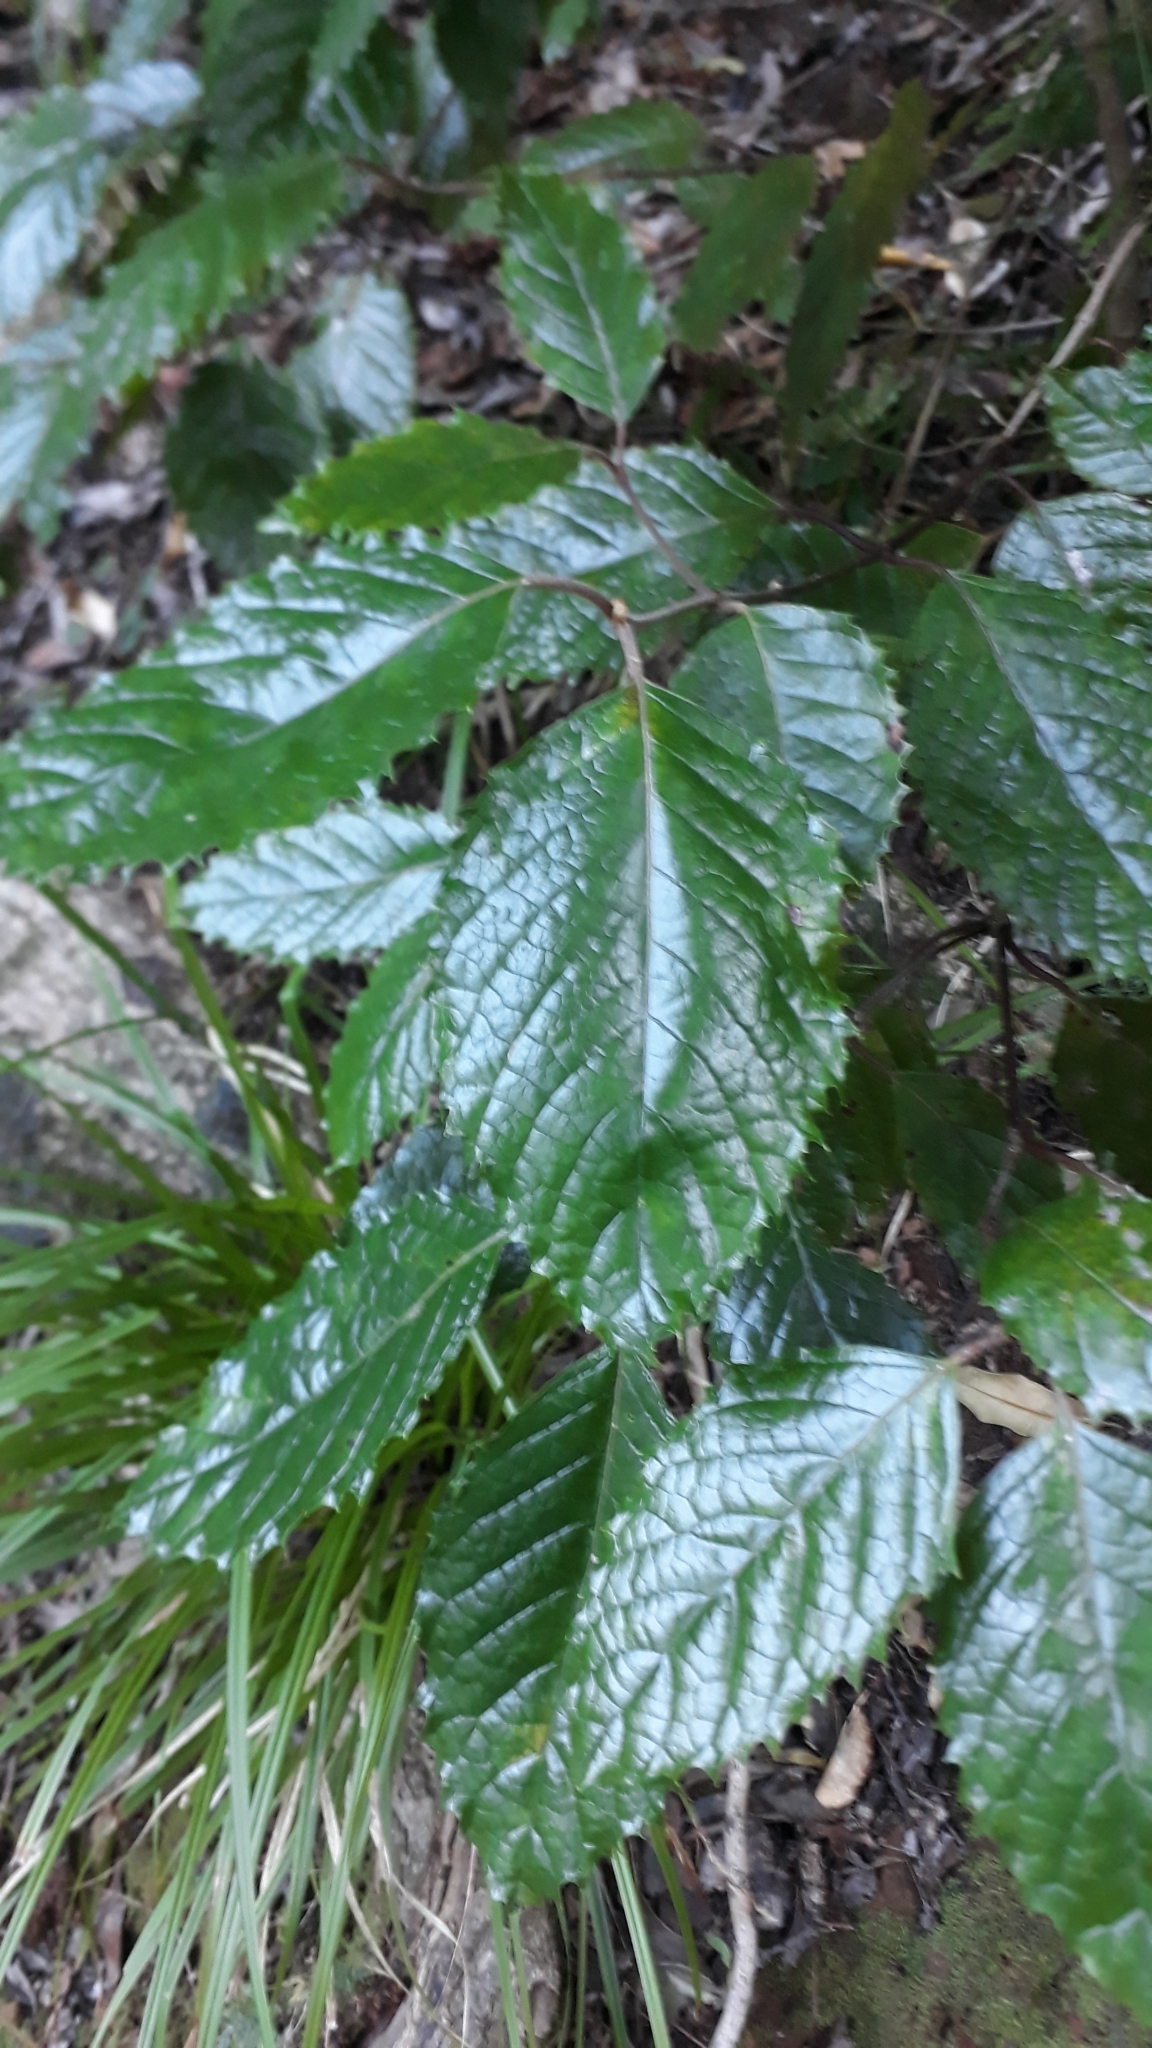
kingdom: Plantae
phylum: Tracheophyta
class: Magnoliopsida
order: Cornales
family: Curtisiaceae
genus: Curtisia
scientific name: Curtisia dentata
